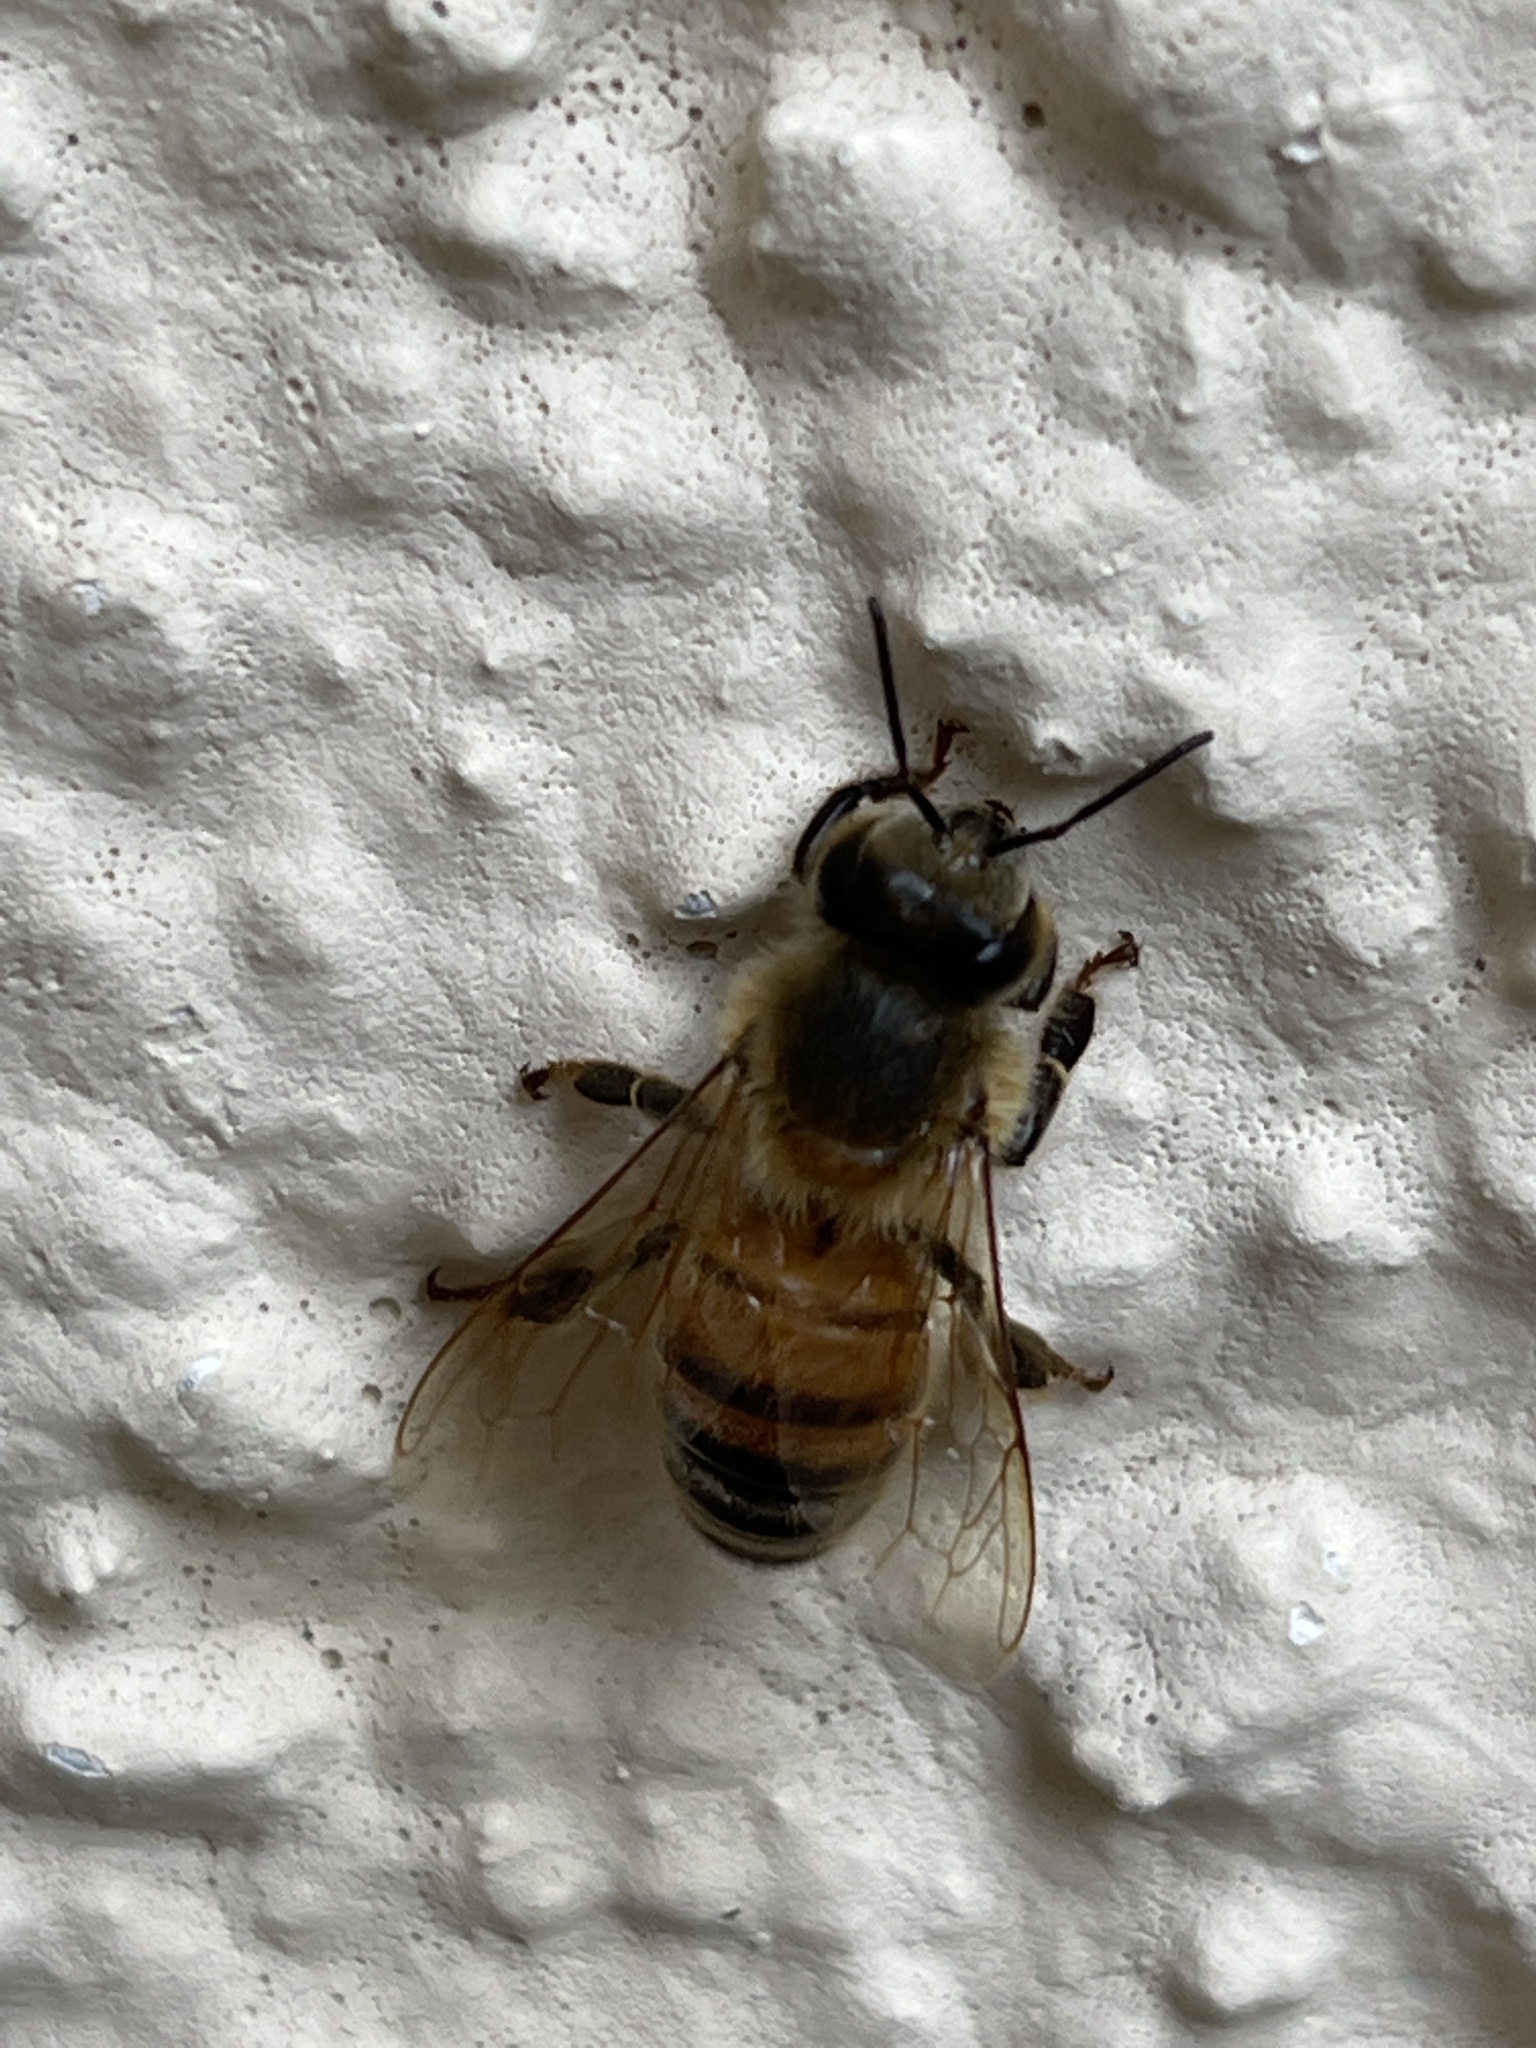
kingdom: Animalia
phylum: Arthropoda
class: Insecta
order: Hymenoptera
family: Apidae
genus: Apis
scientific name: Apis mellifera
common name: Honey bee
